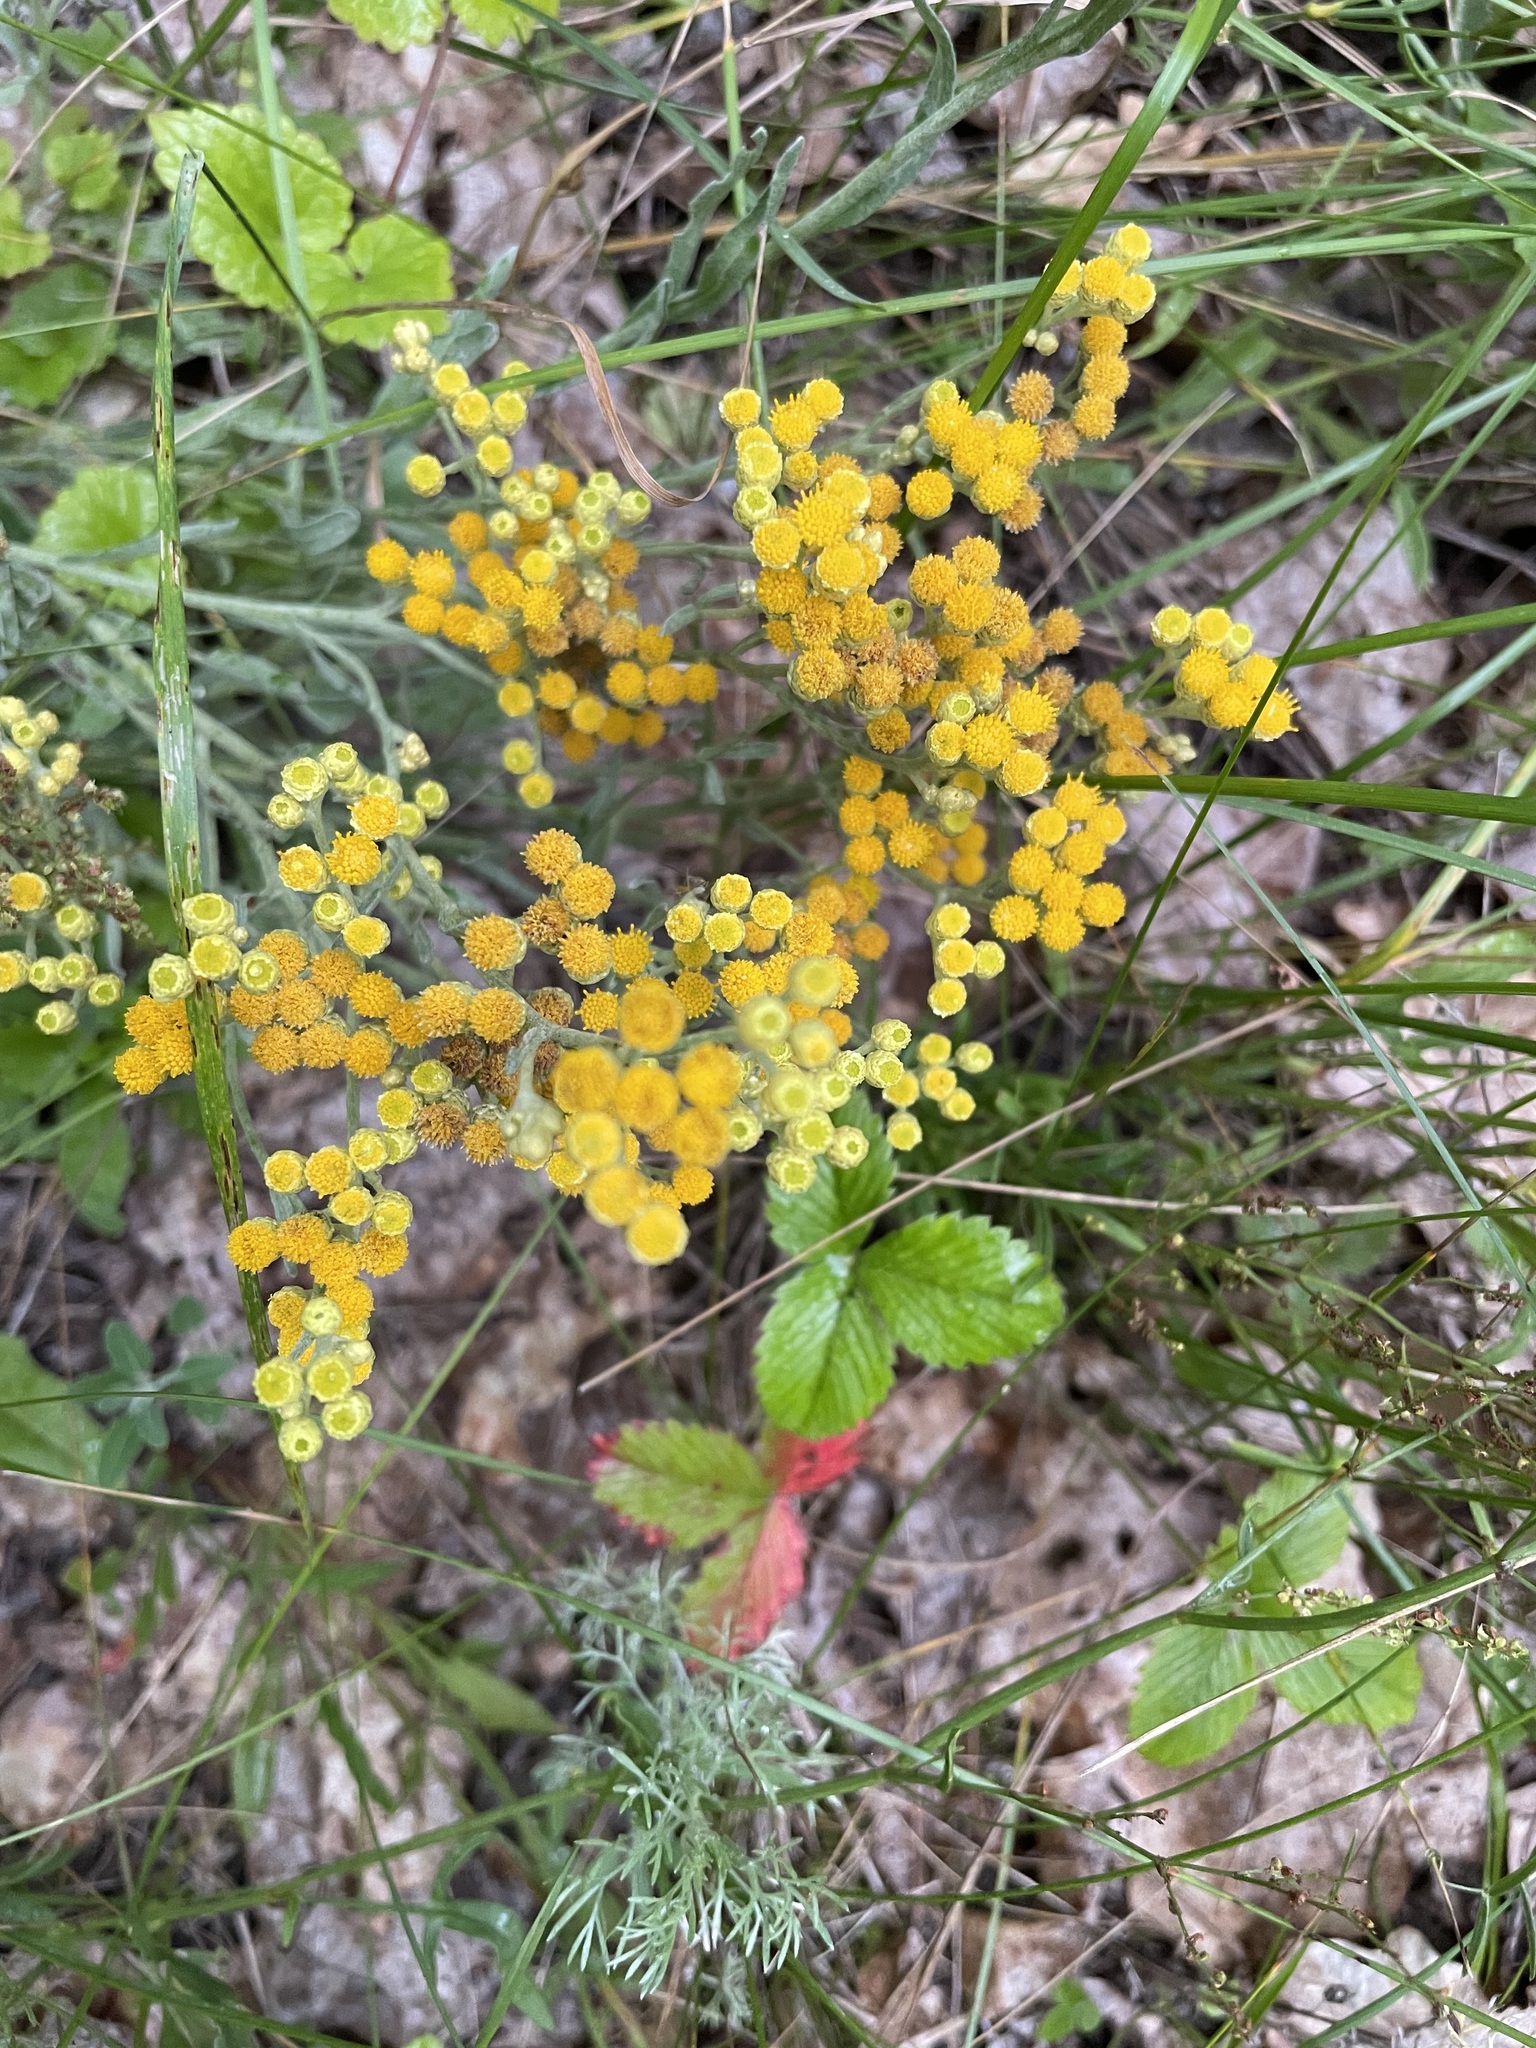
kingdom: Plantae
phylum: Tracheophyta
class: Magnoliopsida
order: Asterales
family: Asteraceae
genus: Helichrysum
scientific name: Helichrysum arenarium
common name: Strawflower
